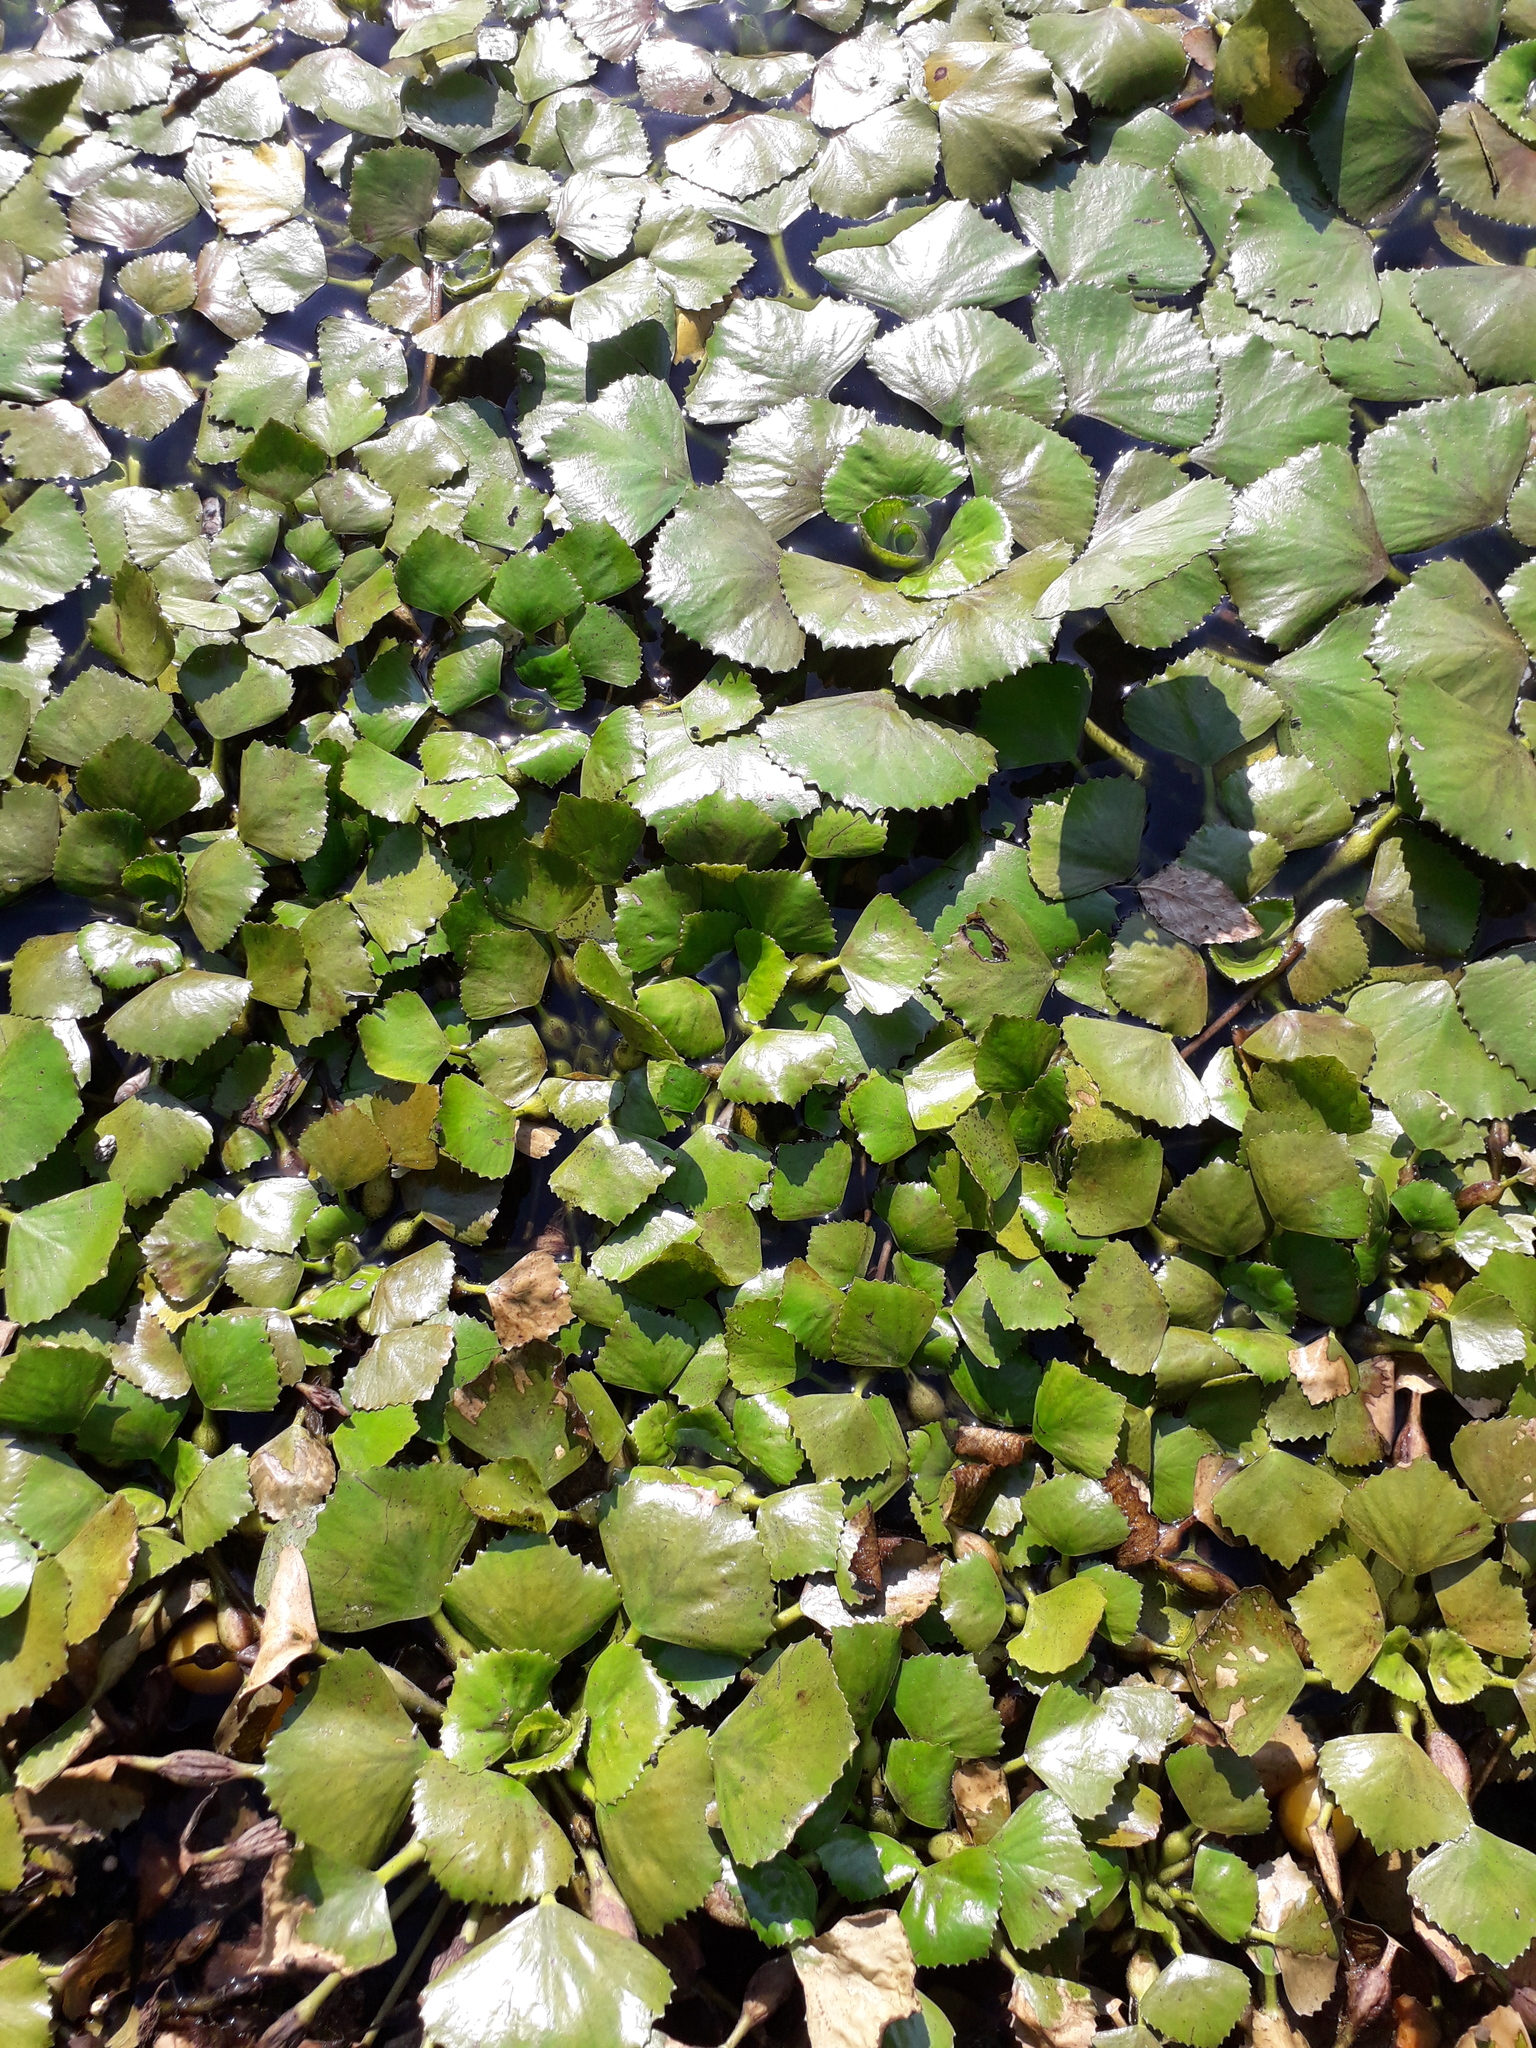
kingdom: Plantae
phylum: Tracheophyta
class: Magnoliopsida
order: Myrtales
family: Lythraceae
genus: Trapa
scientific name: Trapa natans
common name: Water chestnut
